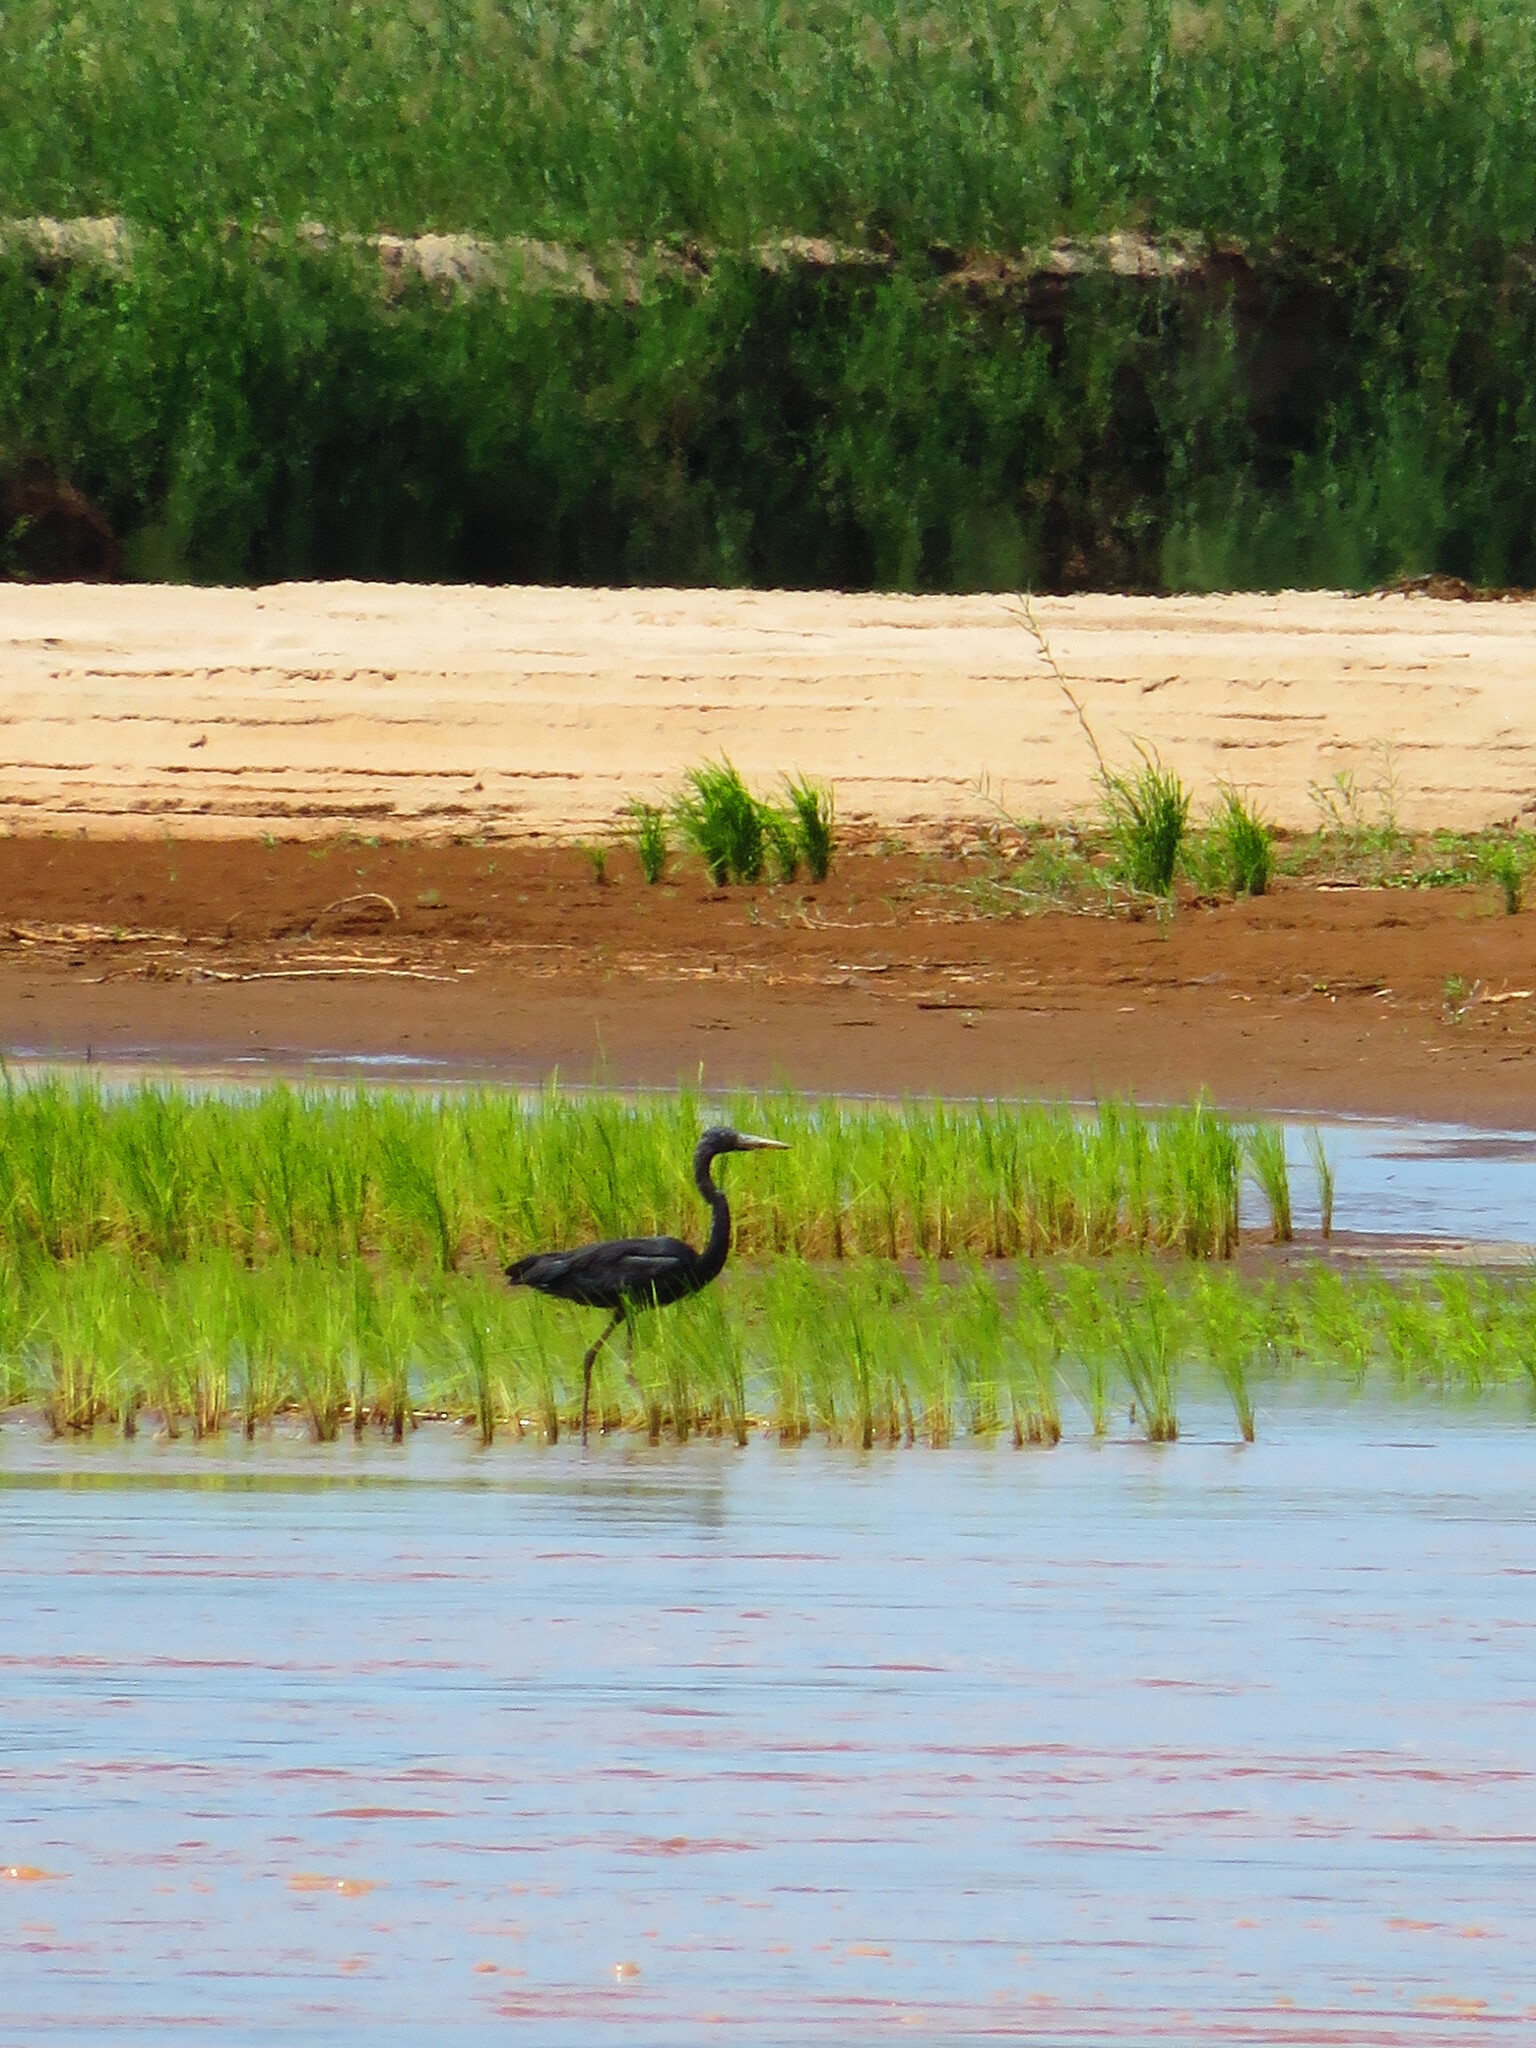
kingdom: Animalia
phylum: Chordata
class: Aves
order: Pelecaniformes
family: Ardeidae
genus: Ardea
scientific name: Ardea humbloti
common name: Humblot's heron
